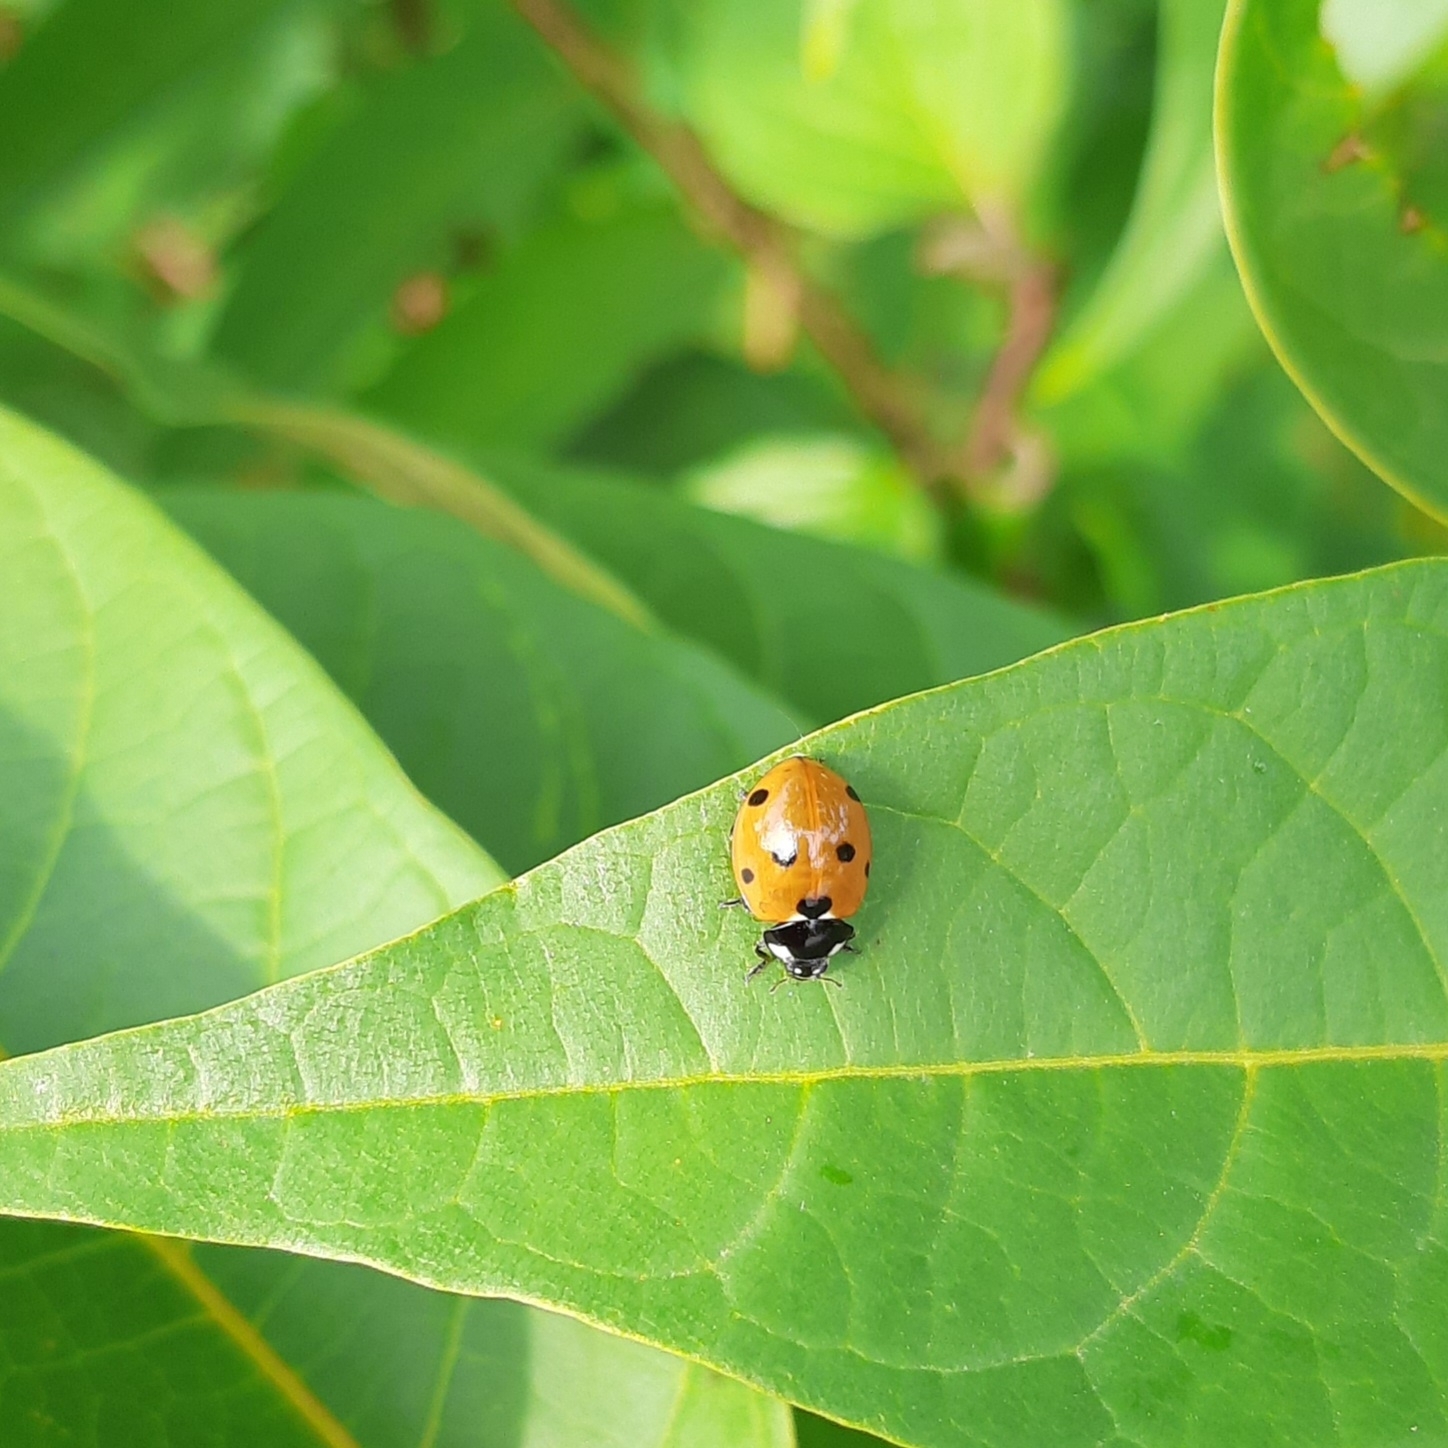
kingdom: Animalia
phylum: Arthropoda
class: Insecta
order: Coleoptera
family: Coccinellidae
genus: Coccinella
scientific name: Coccinella septempunctata
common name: Sevenspotted lady beetle
